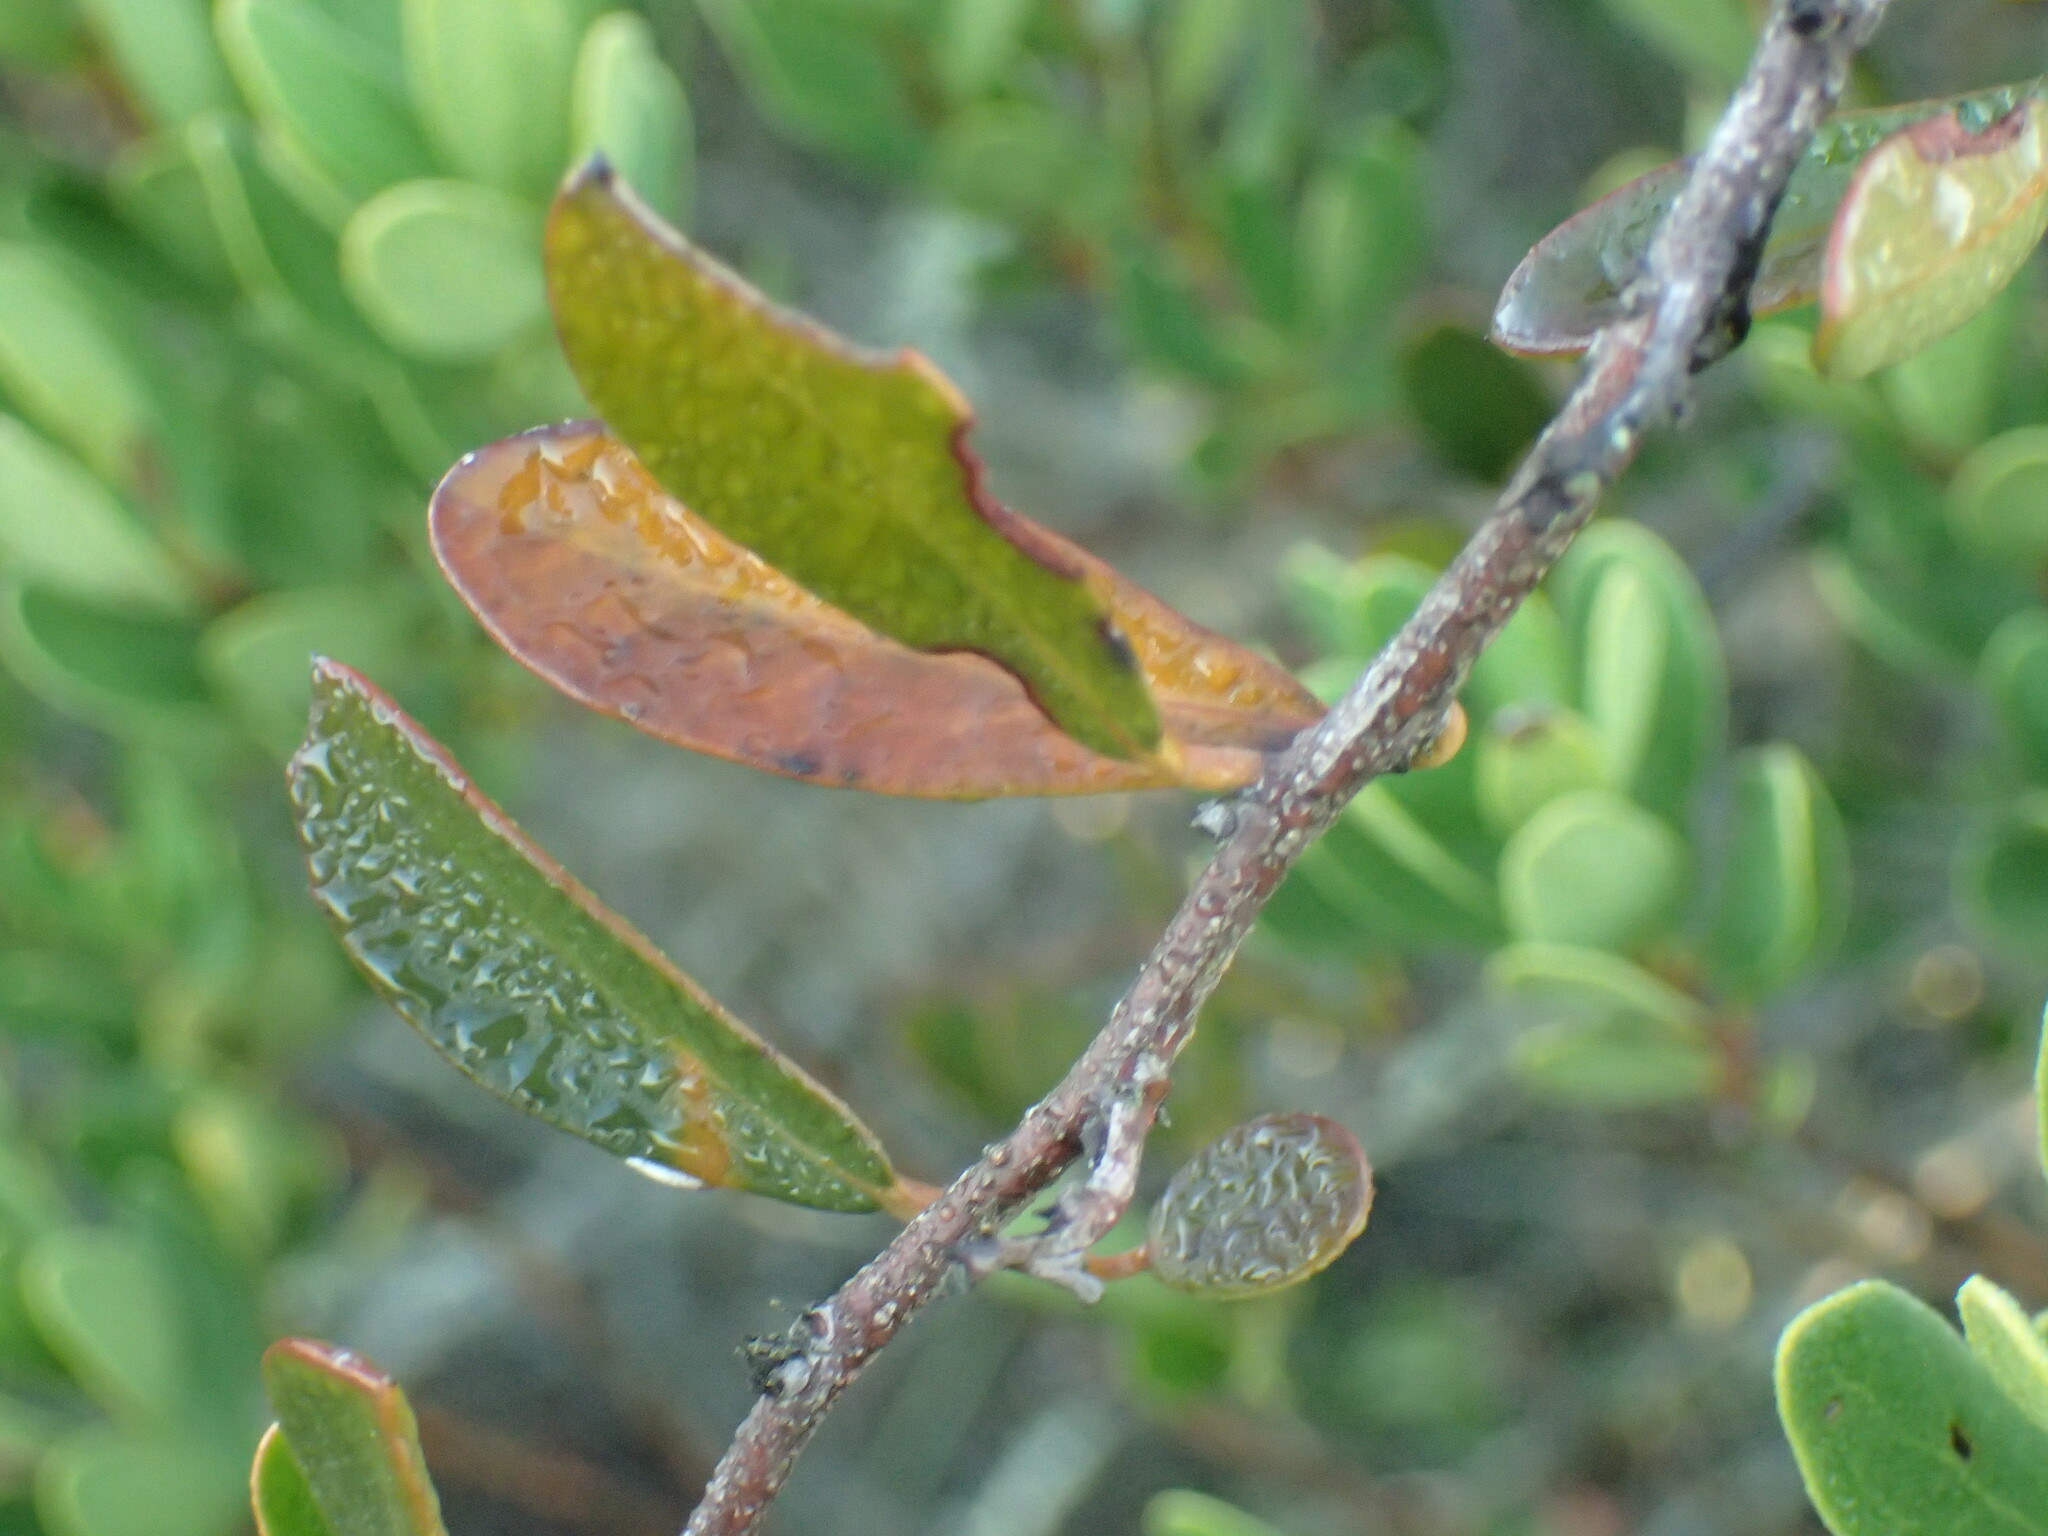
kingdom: Plantae
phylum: Tracheophyta
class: Magnoliopsida
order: Celastrales
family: Celastraceae
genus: Putterlickia
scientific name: Putterlickia pyracantha
